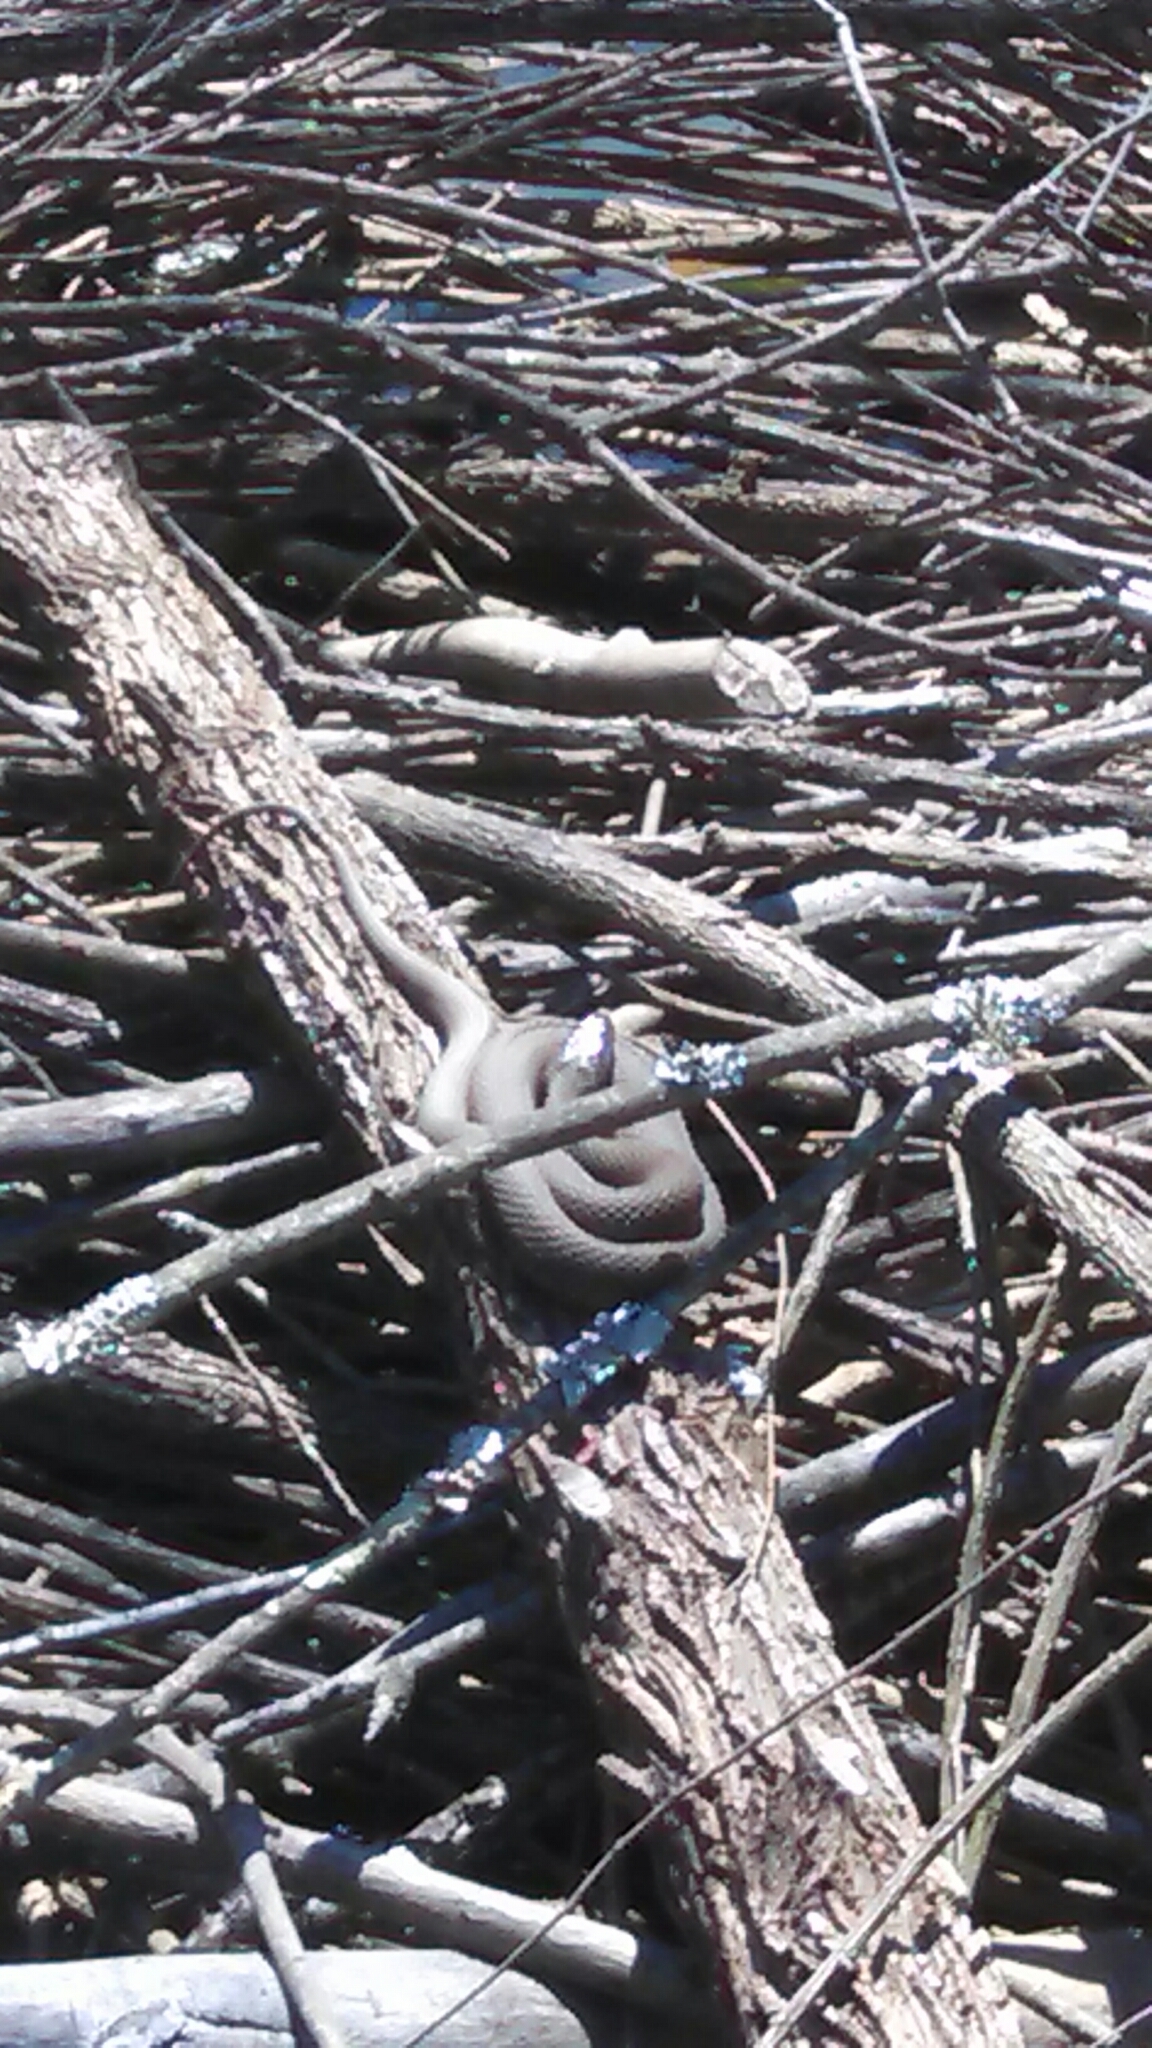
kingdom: Animalia
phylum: Chordata
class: Squamata
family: Colubridae
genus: Nerodia
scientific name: Nerodia sipedon
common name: Northern water snake
